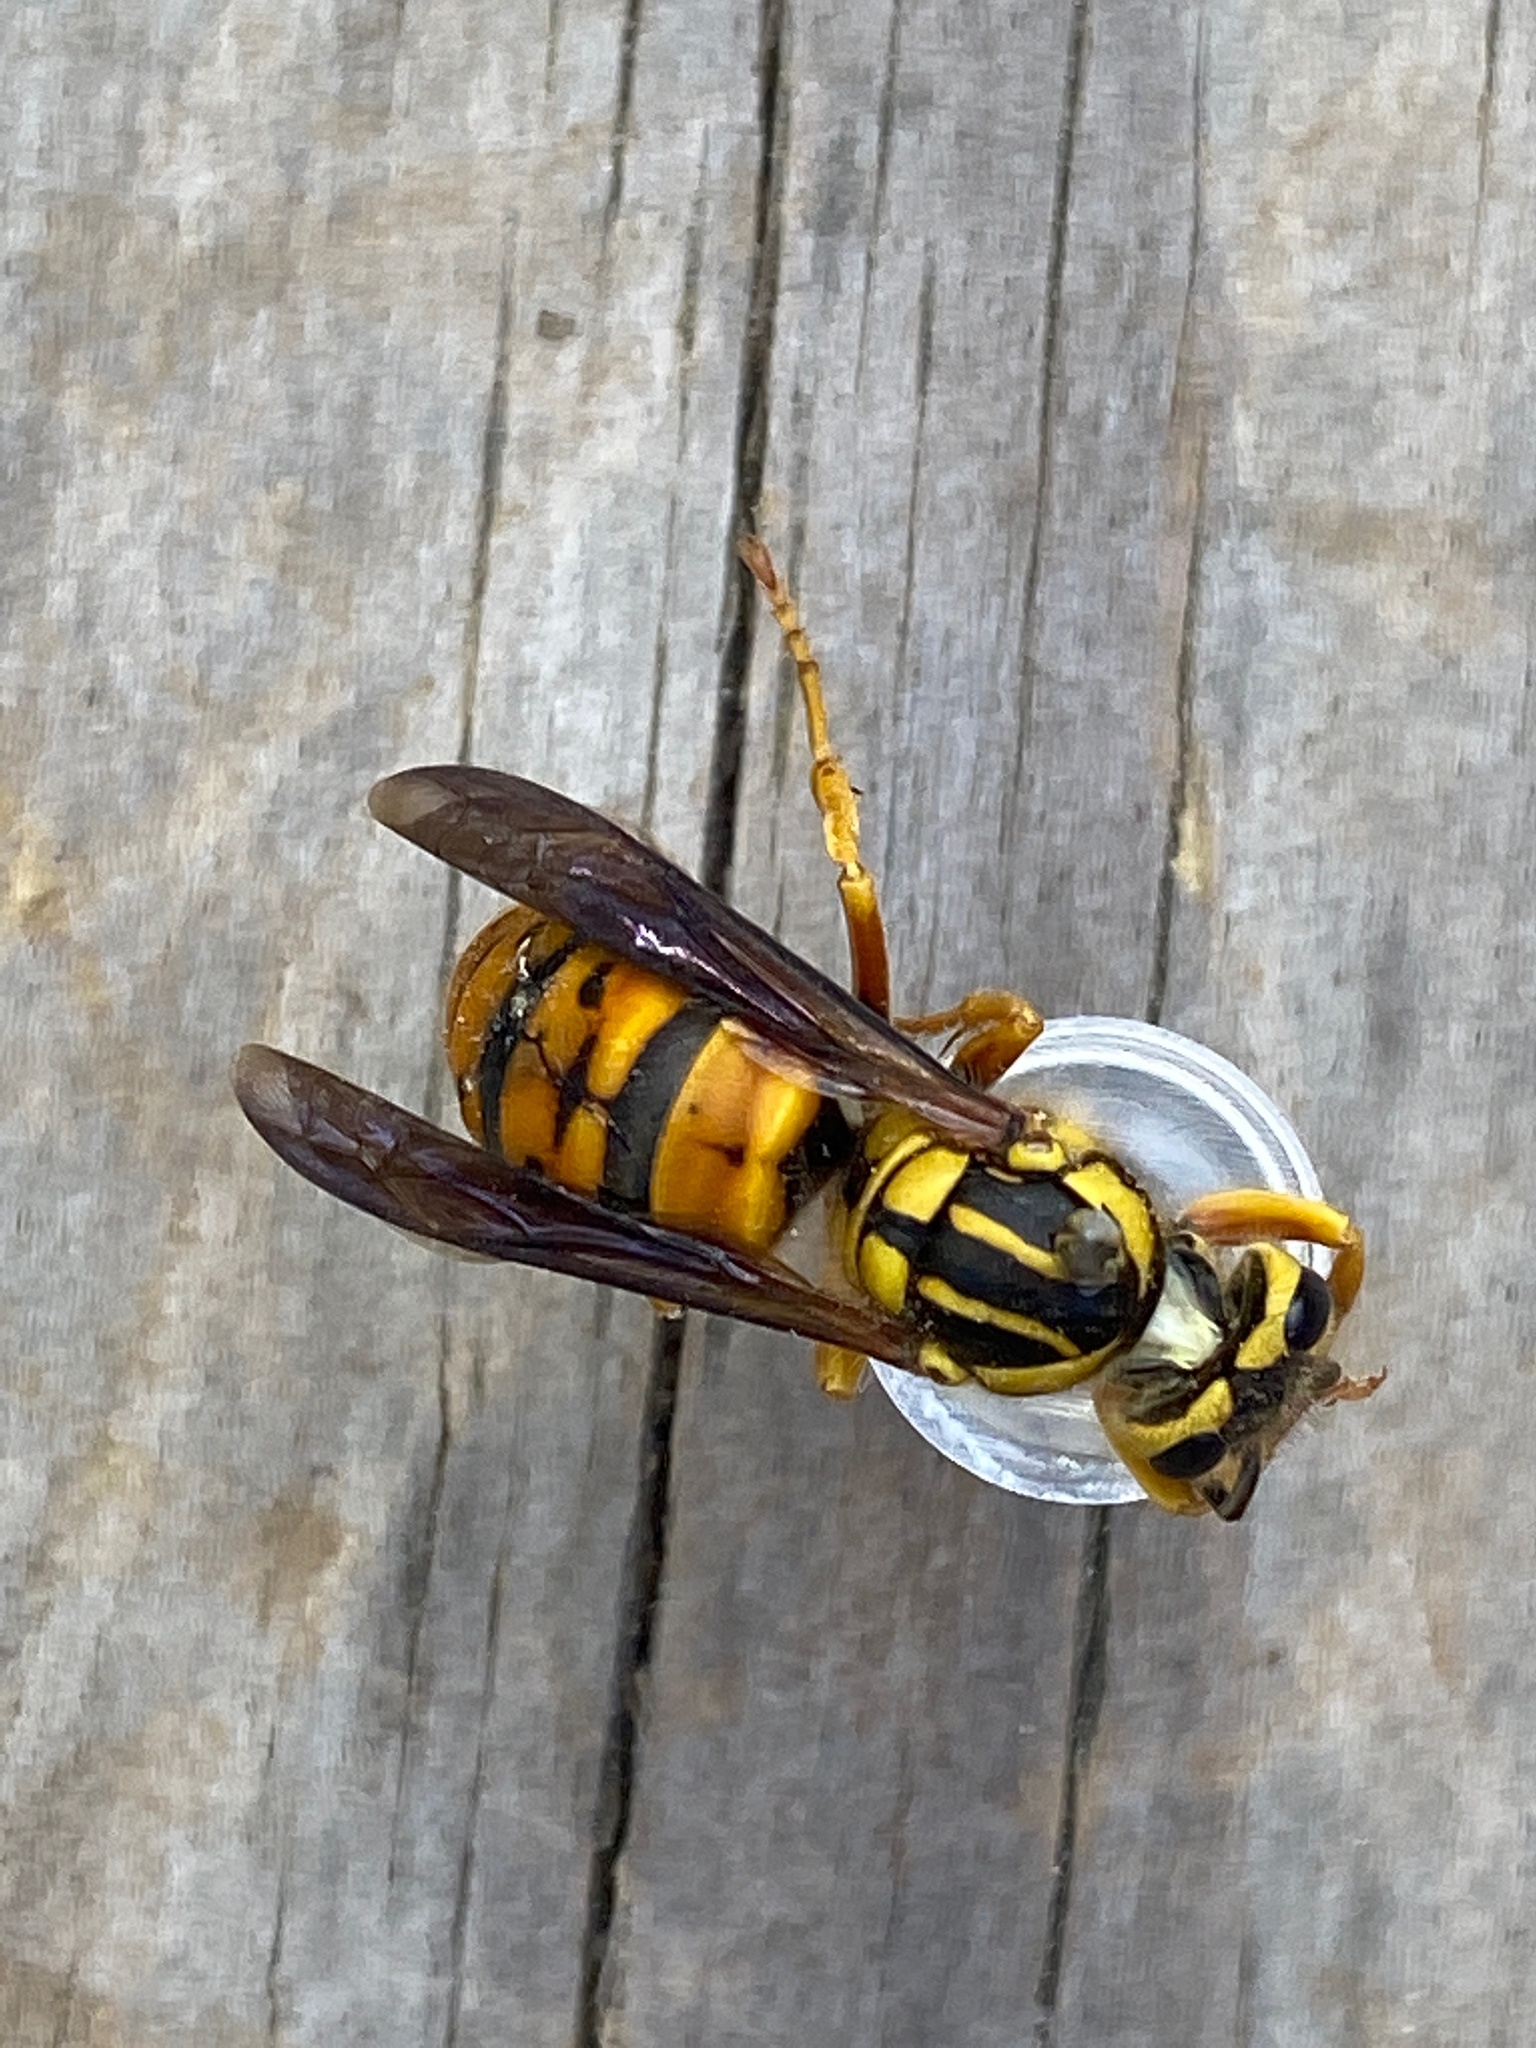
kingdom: Animalia
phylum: Arthropoda
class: Insecta
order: Hymenoptera
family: Vespidae
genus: Vespula
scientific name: Vespula squamosa
